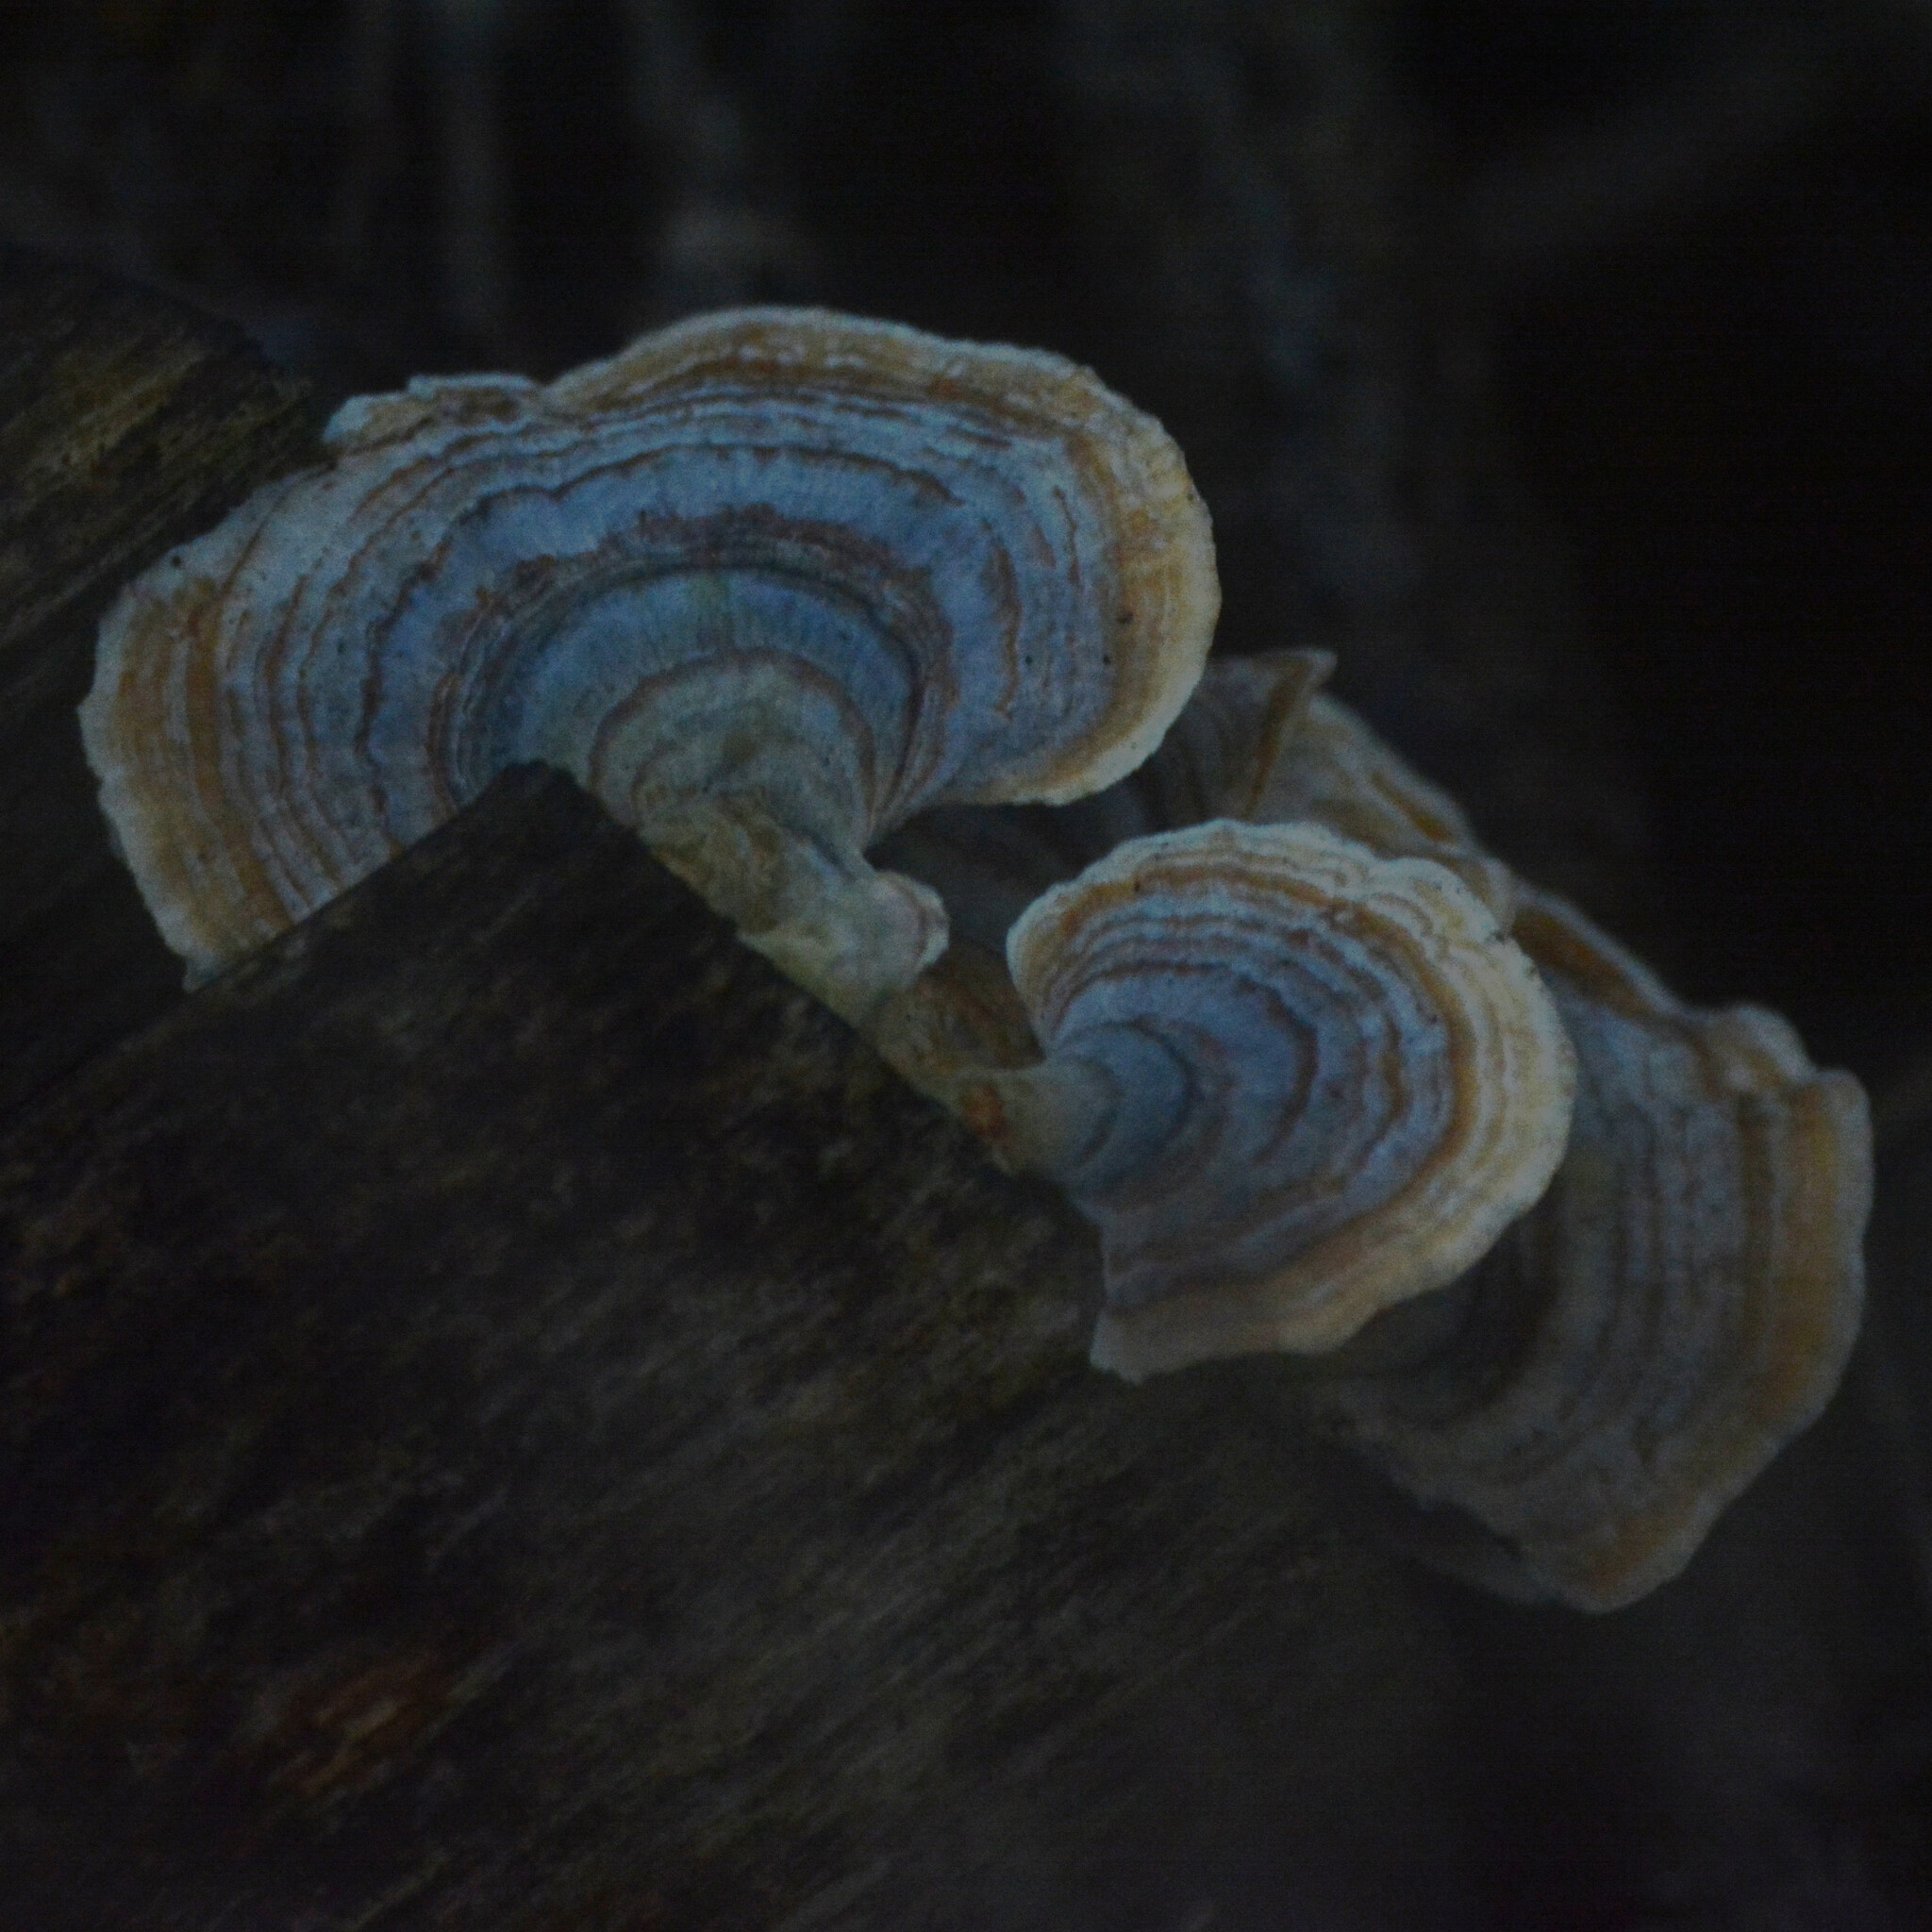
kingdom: Fungi
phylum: Basidiomycota
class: Agaricomycetes
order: Polyporales
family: Polyporaceae
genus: Trametes
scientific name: Trametes versicolor
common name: Turkeytail
